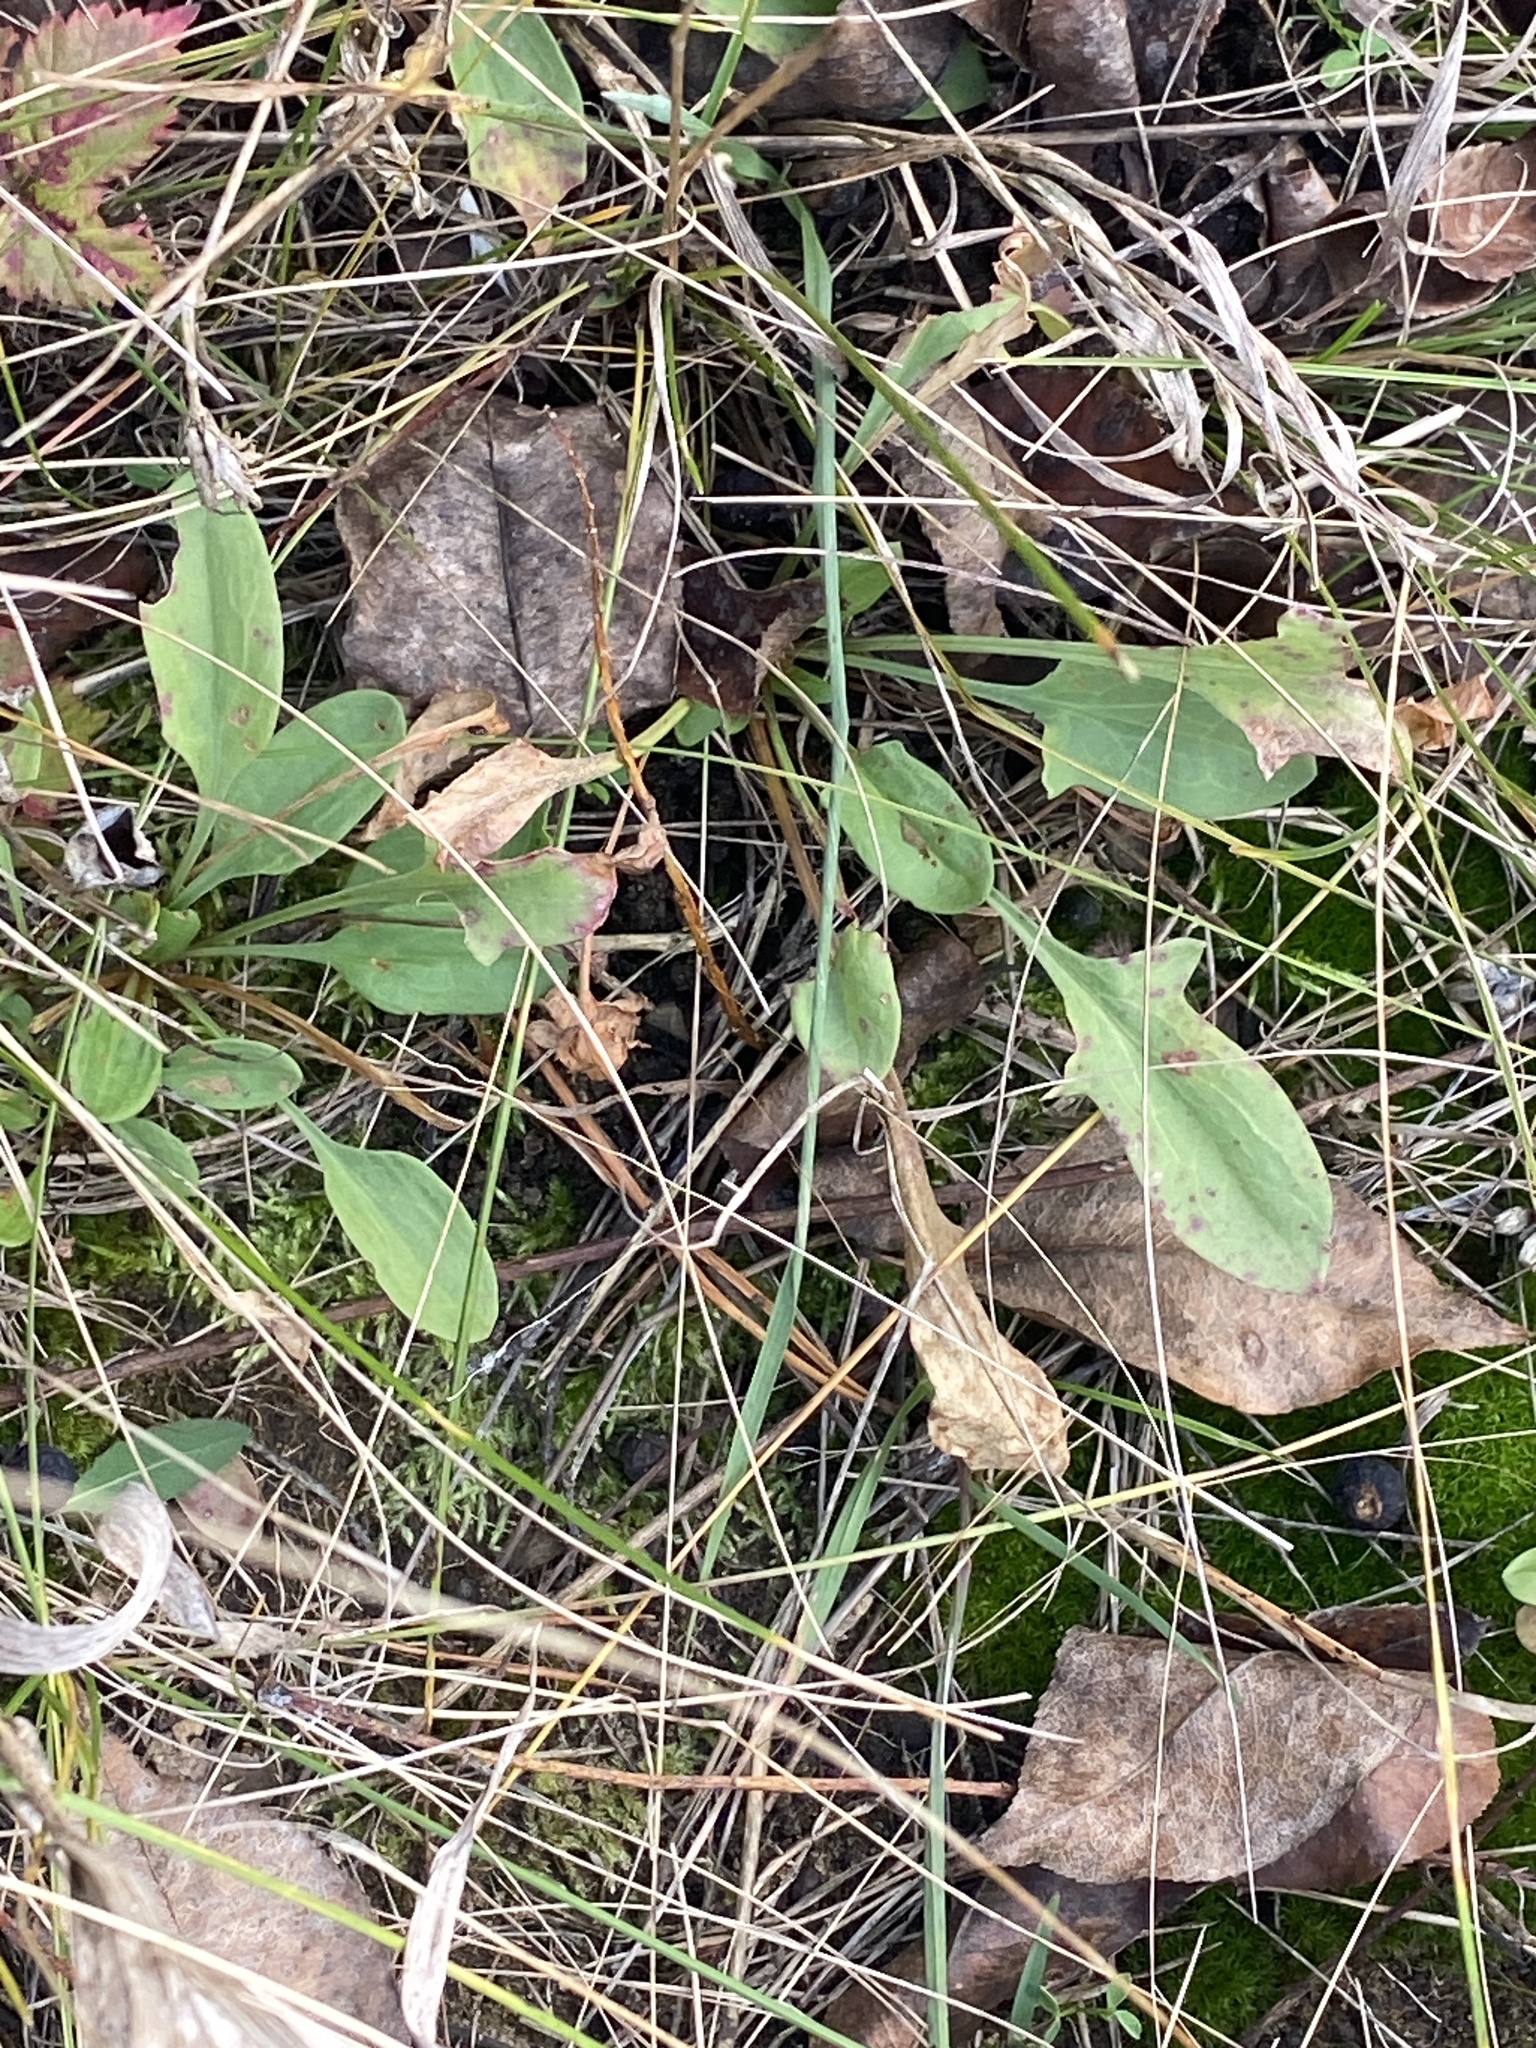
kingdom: Plantae
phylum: Tracheophyta
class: Magnoliopsida
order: Caryophyllales
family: Polygonaceae
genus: Rumex
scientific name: Rumex acetosella
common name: Common sheep sorrel
